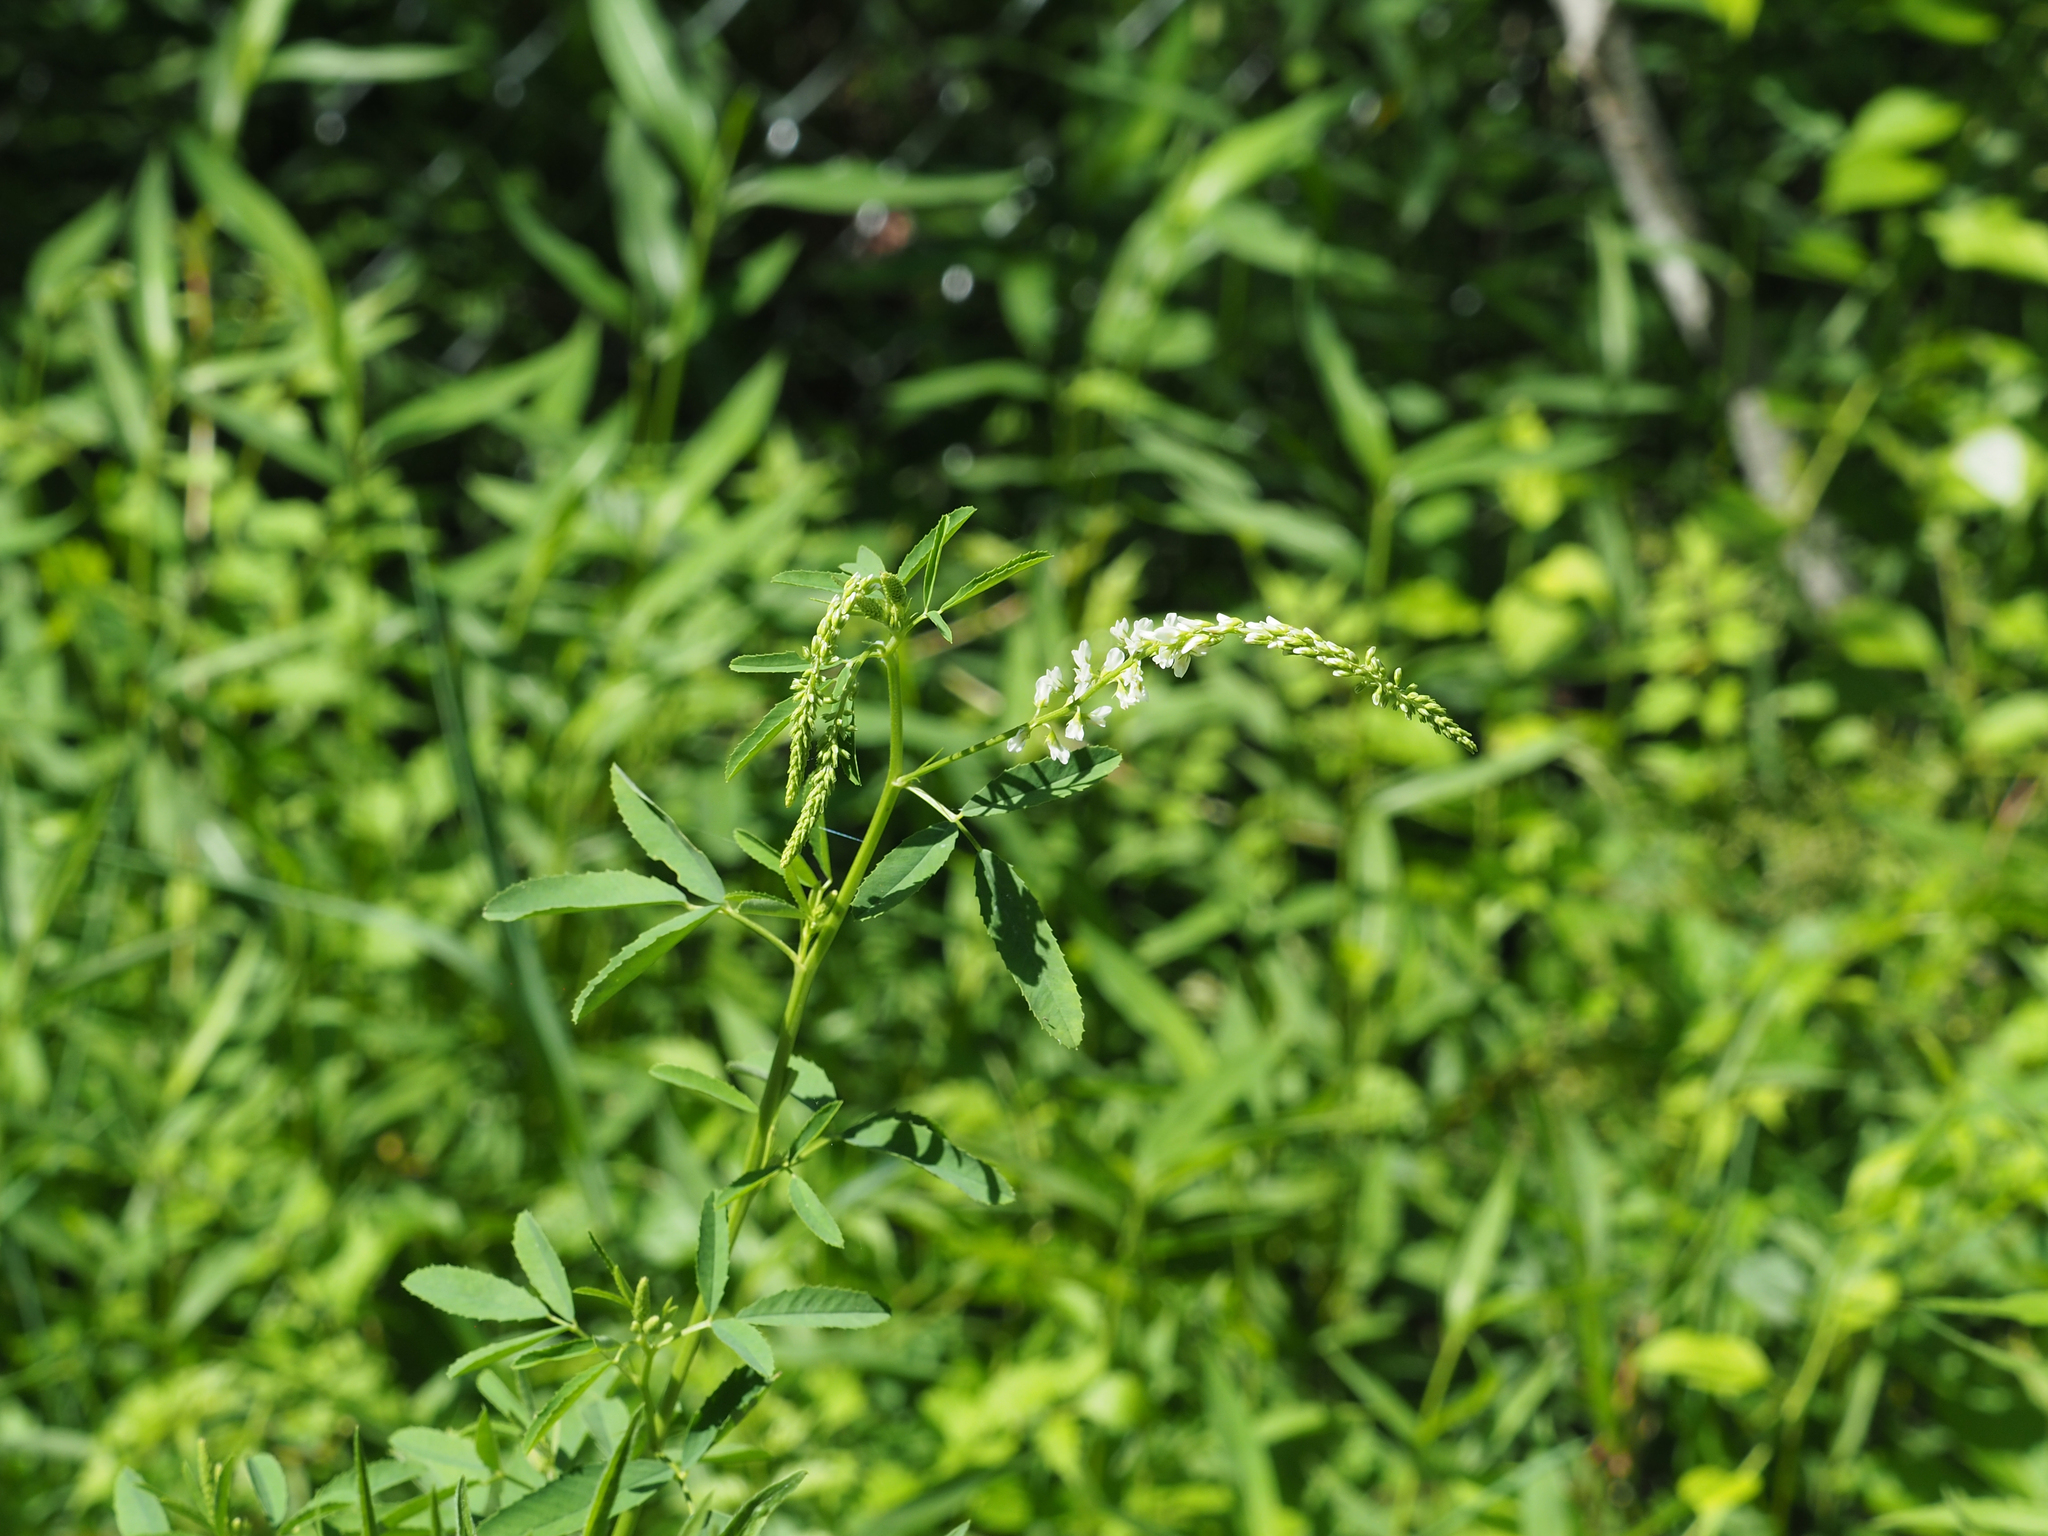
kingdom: Plantae
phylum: Tracheophyta
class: Magnoliopsida
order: Fabales
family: Fabaceae
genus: Melilotus
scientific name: Melilotus albus
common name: White melilot
